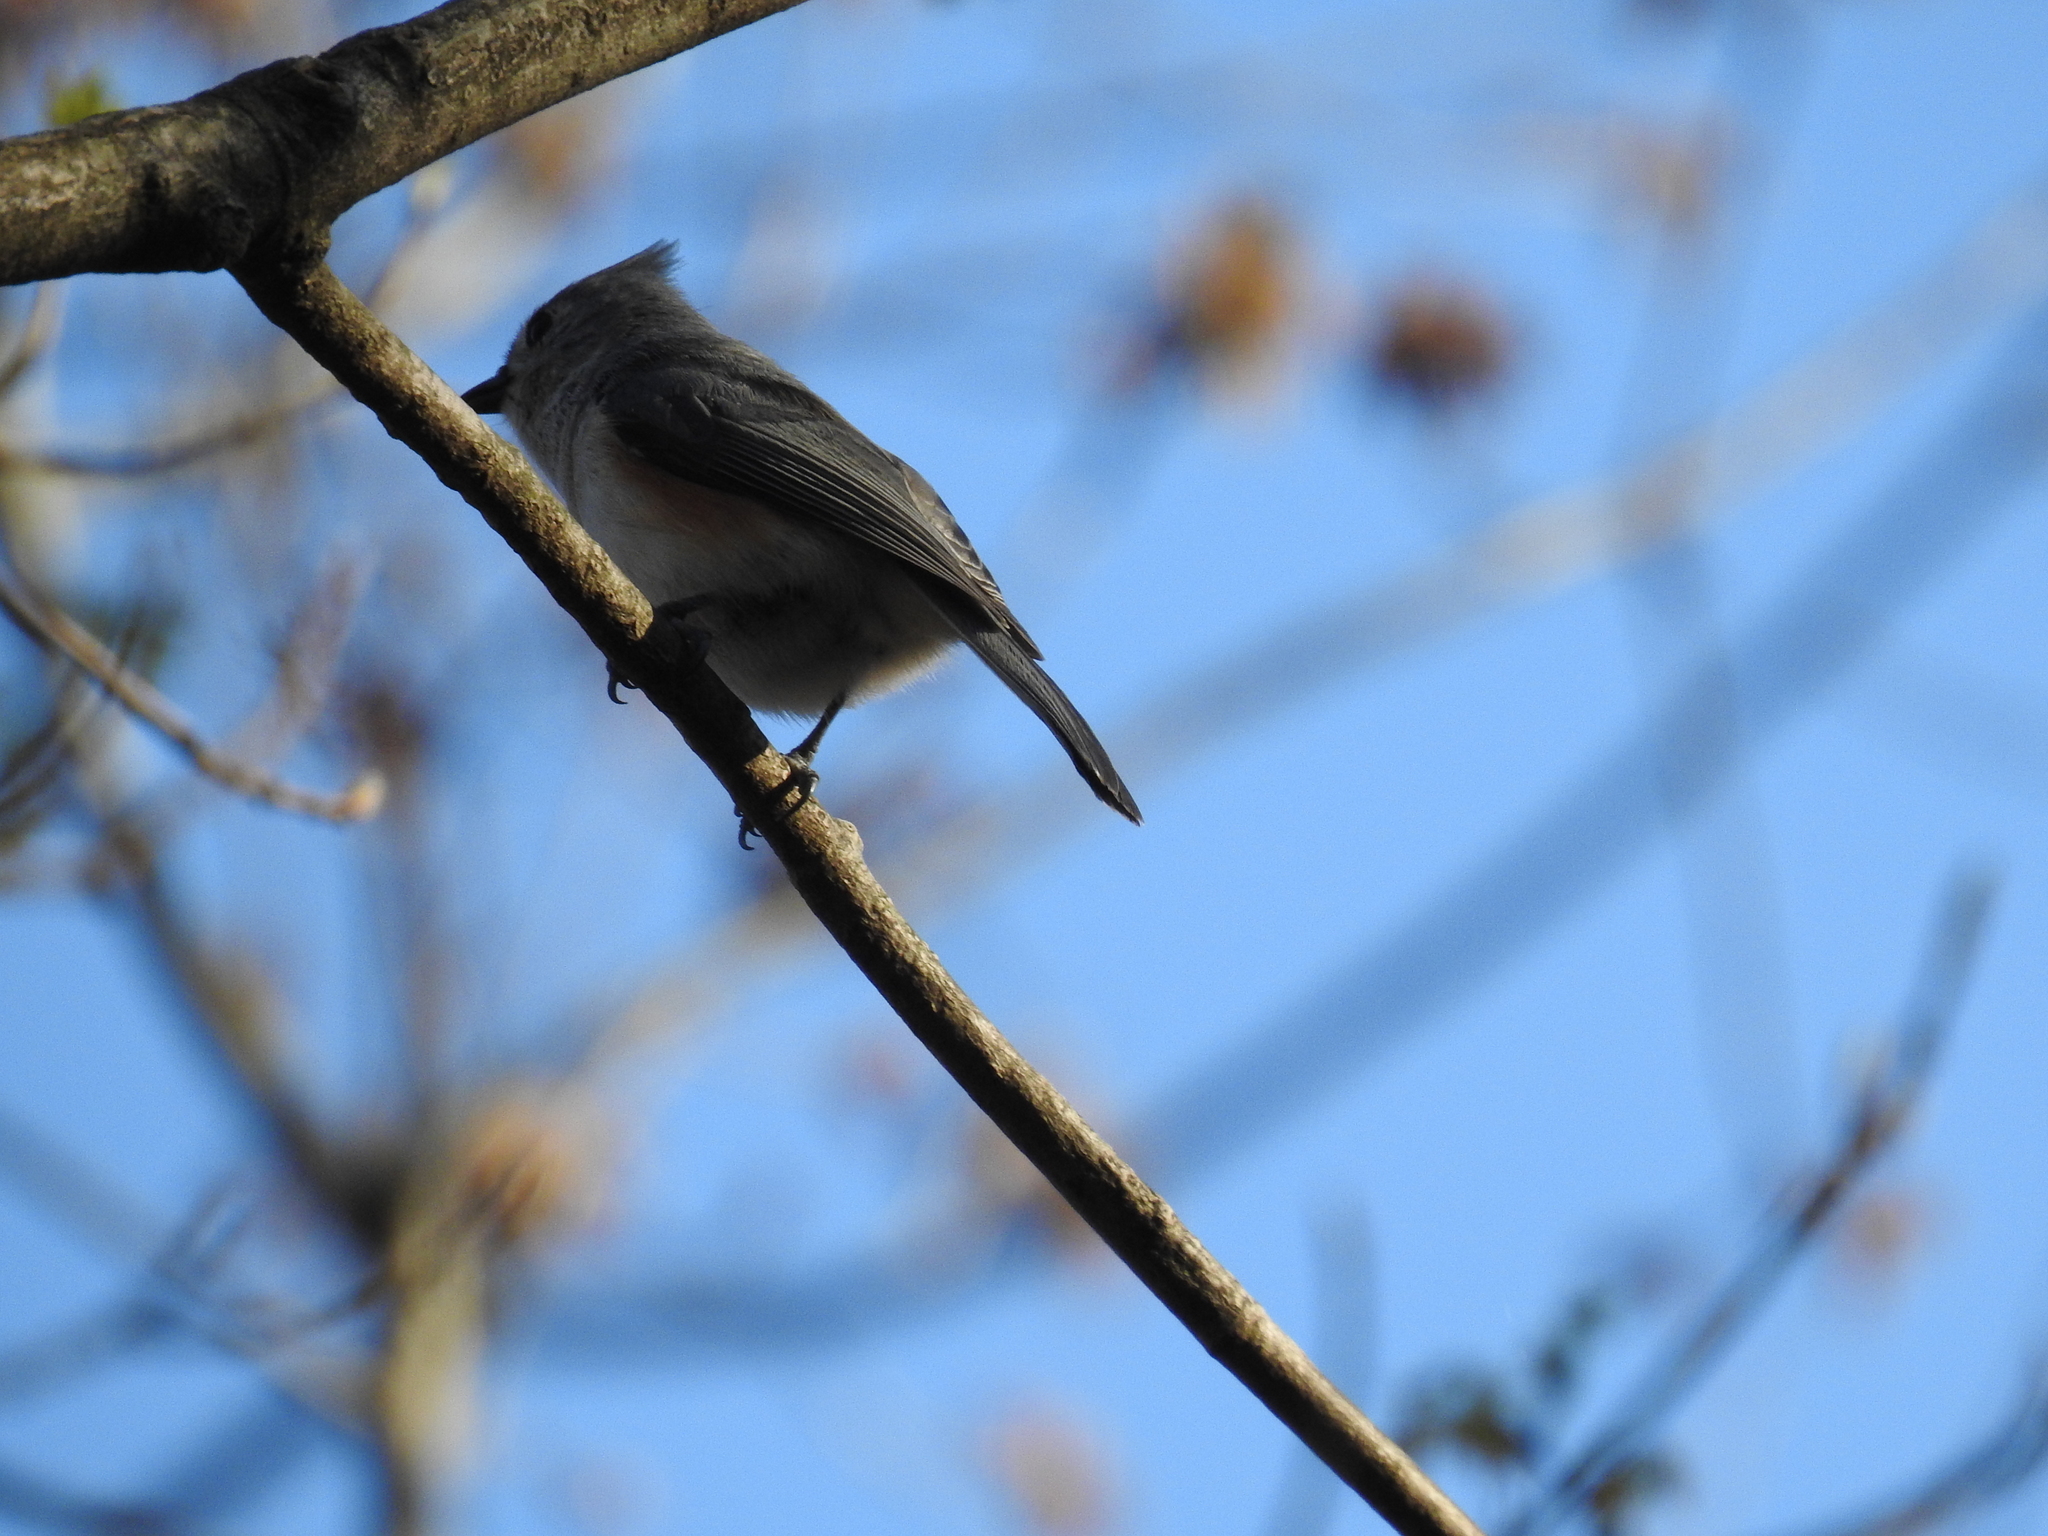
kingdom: Animalia
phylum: Chordata
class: Aves
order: Passeriformes
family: Paridae
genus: Baeolophus
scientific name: Baeolophus bicolor
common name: Tufted titmouse
